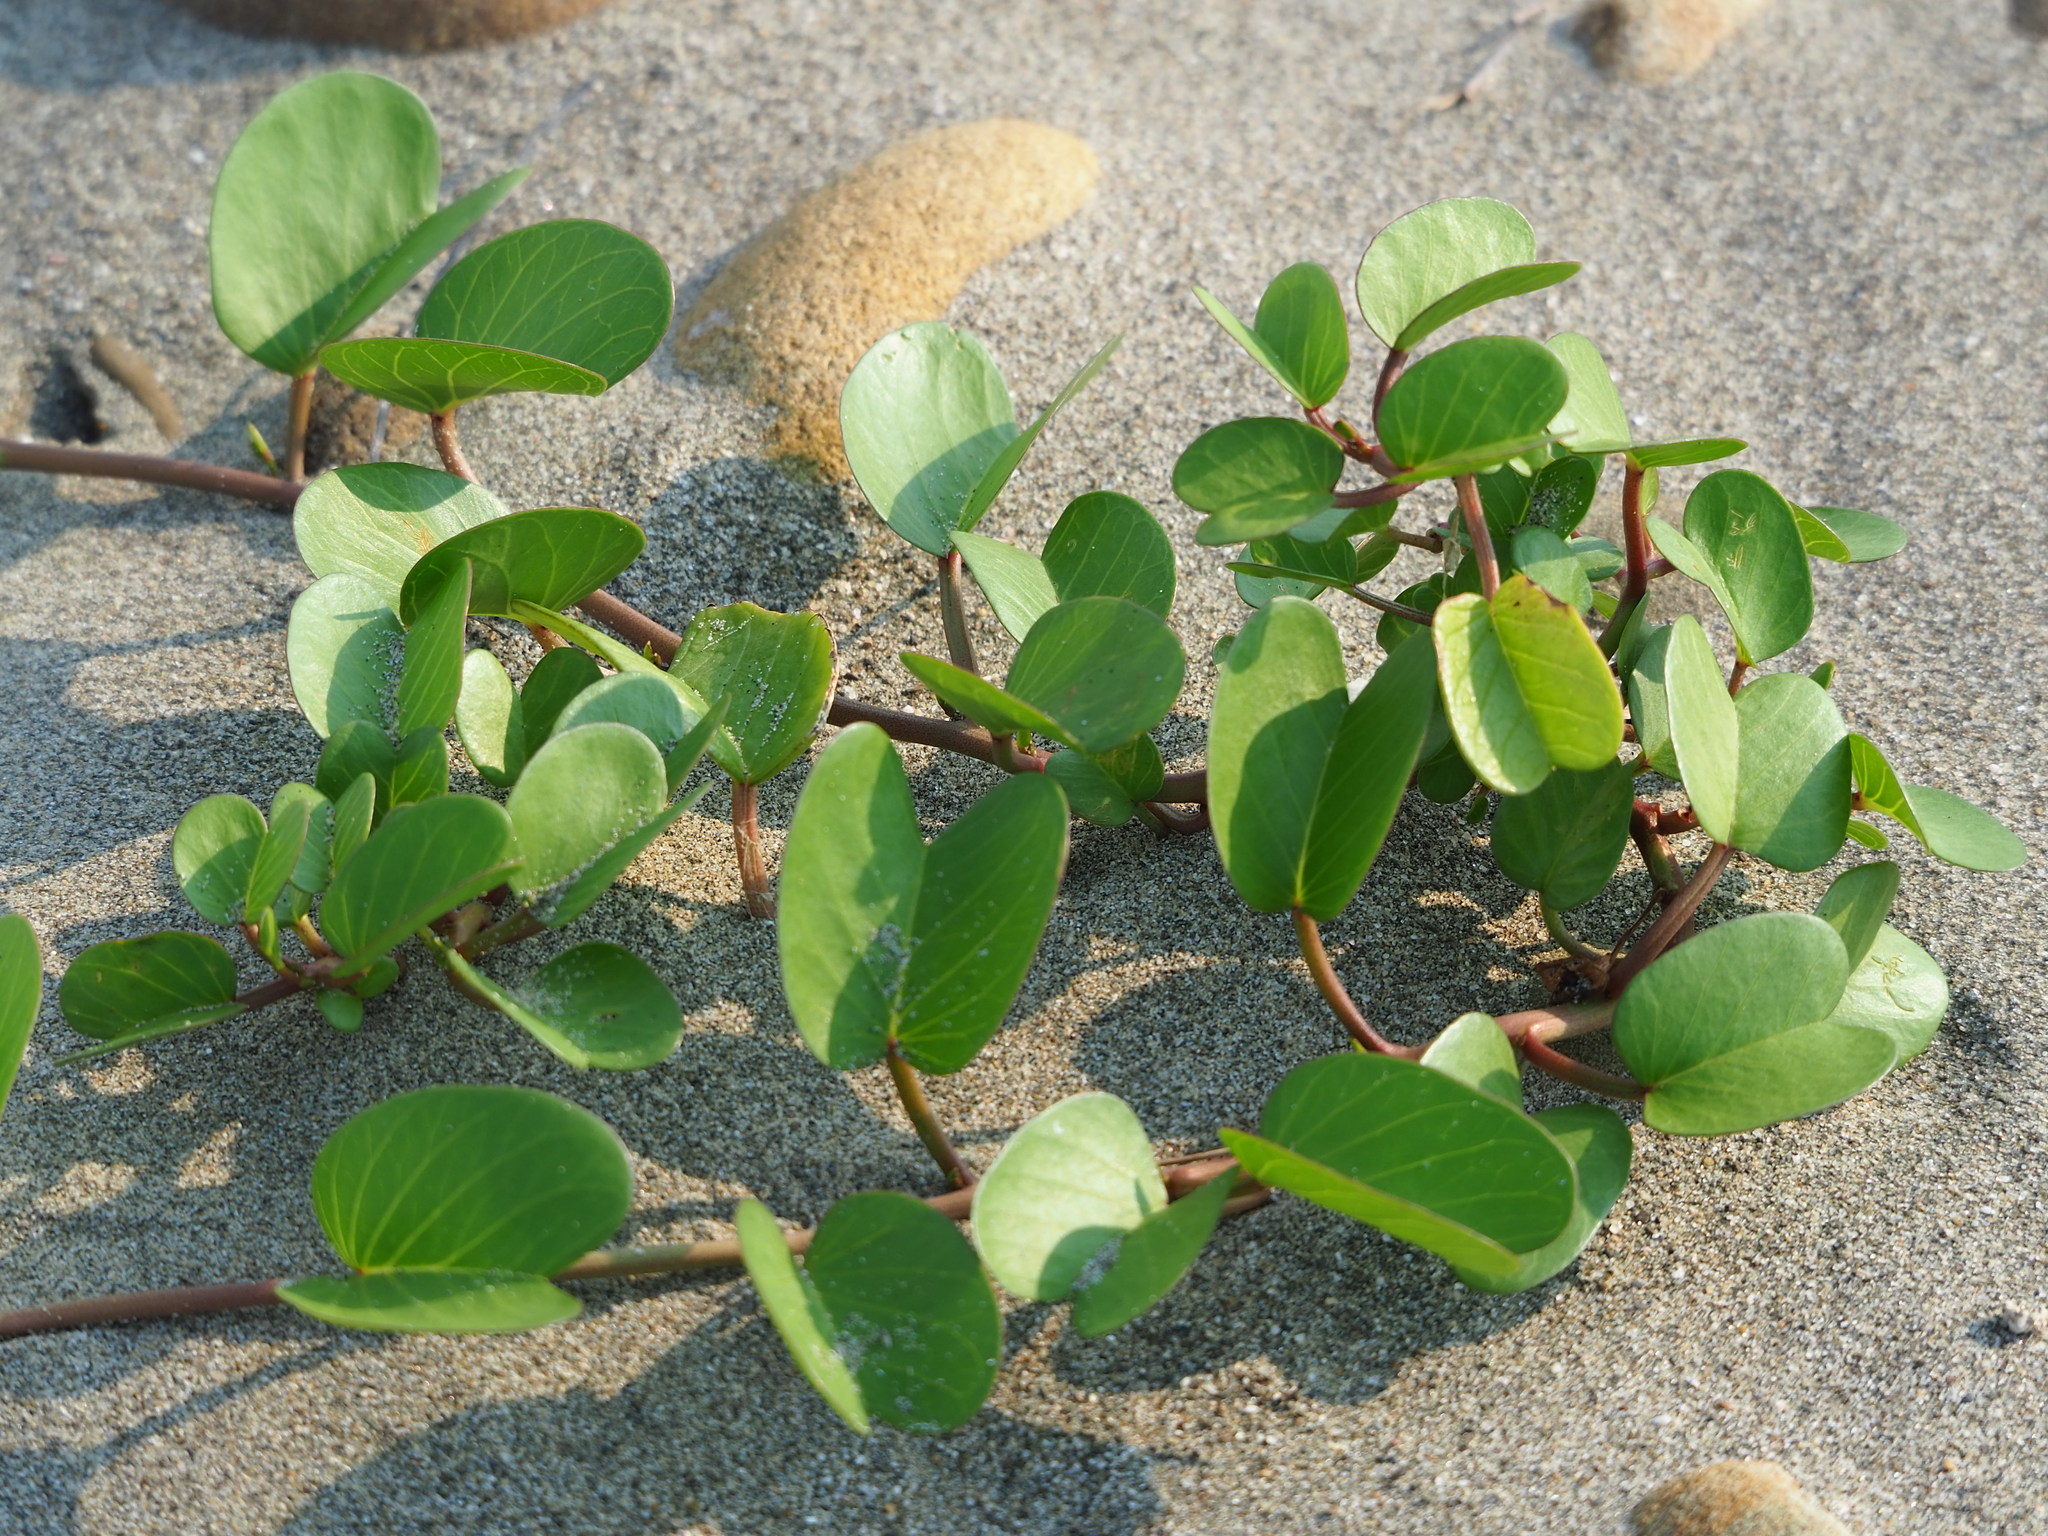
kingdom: Plantae
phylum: Tracheophyta
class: Magnoliopsida
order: Solanales
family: Convolvulaceae
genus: Ipomoea
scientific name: Ipomoea pes-caprae
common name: Beach morning glory
